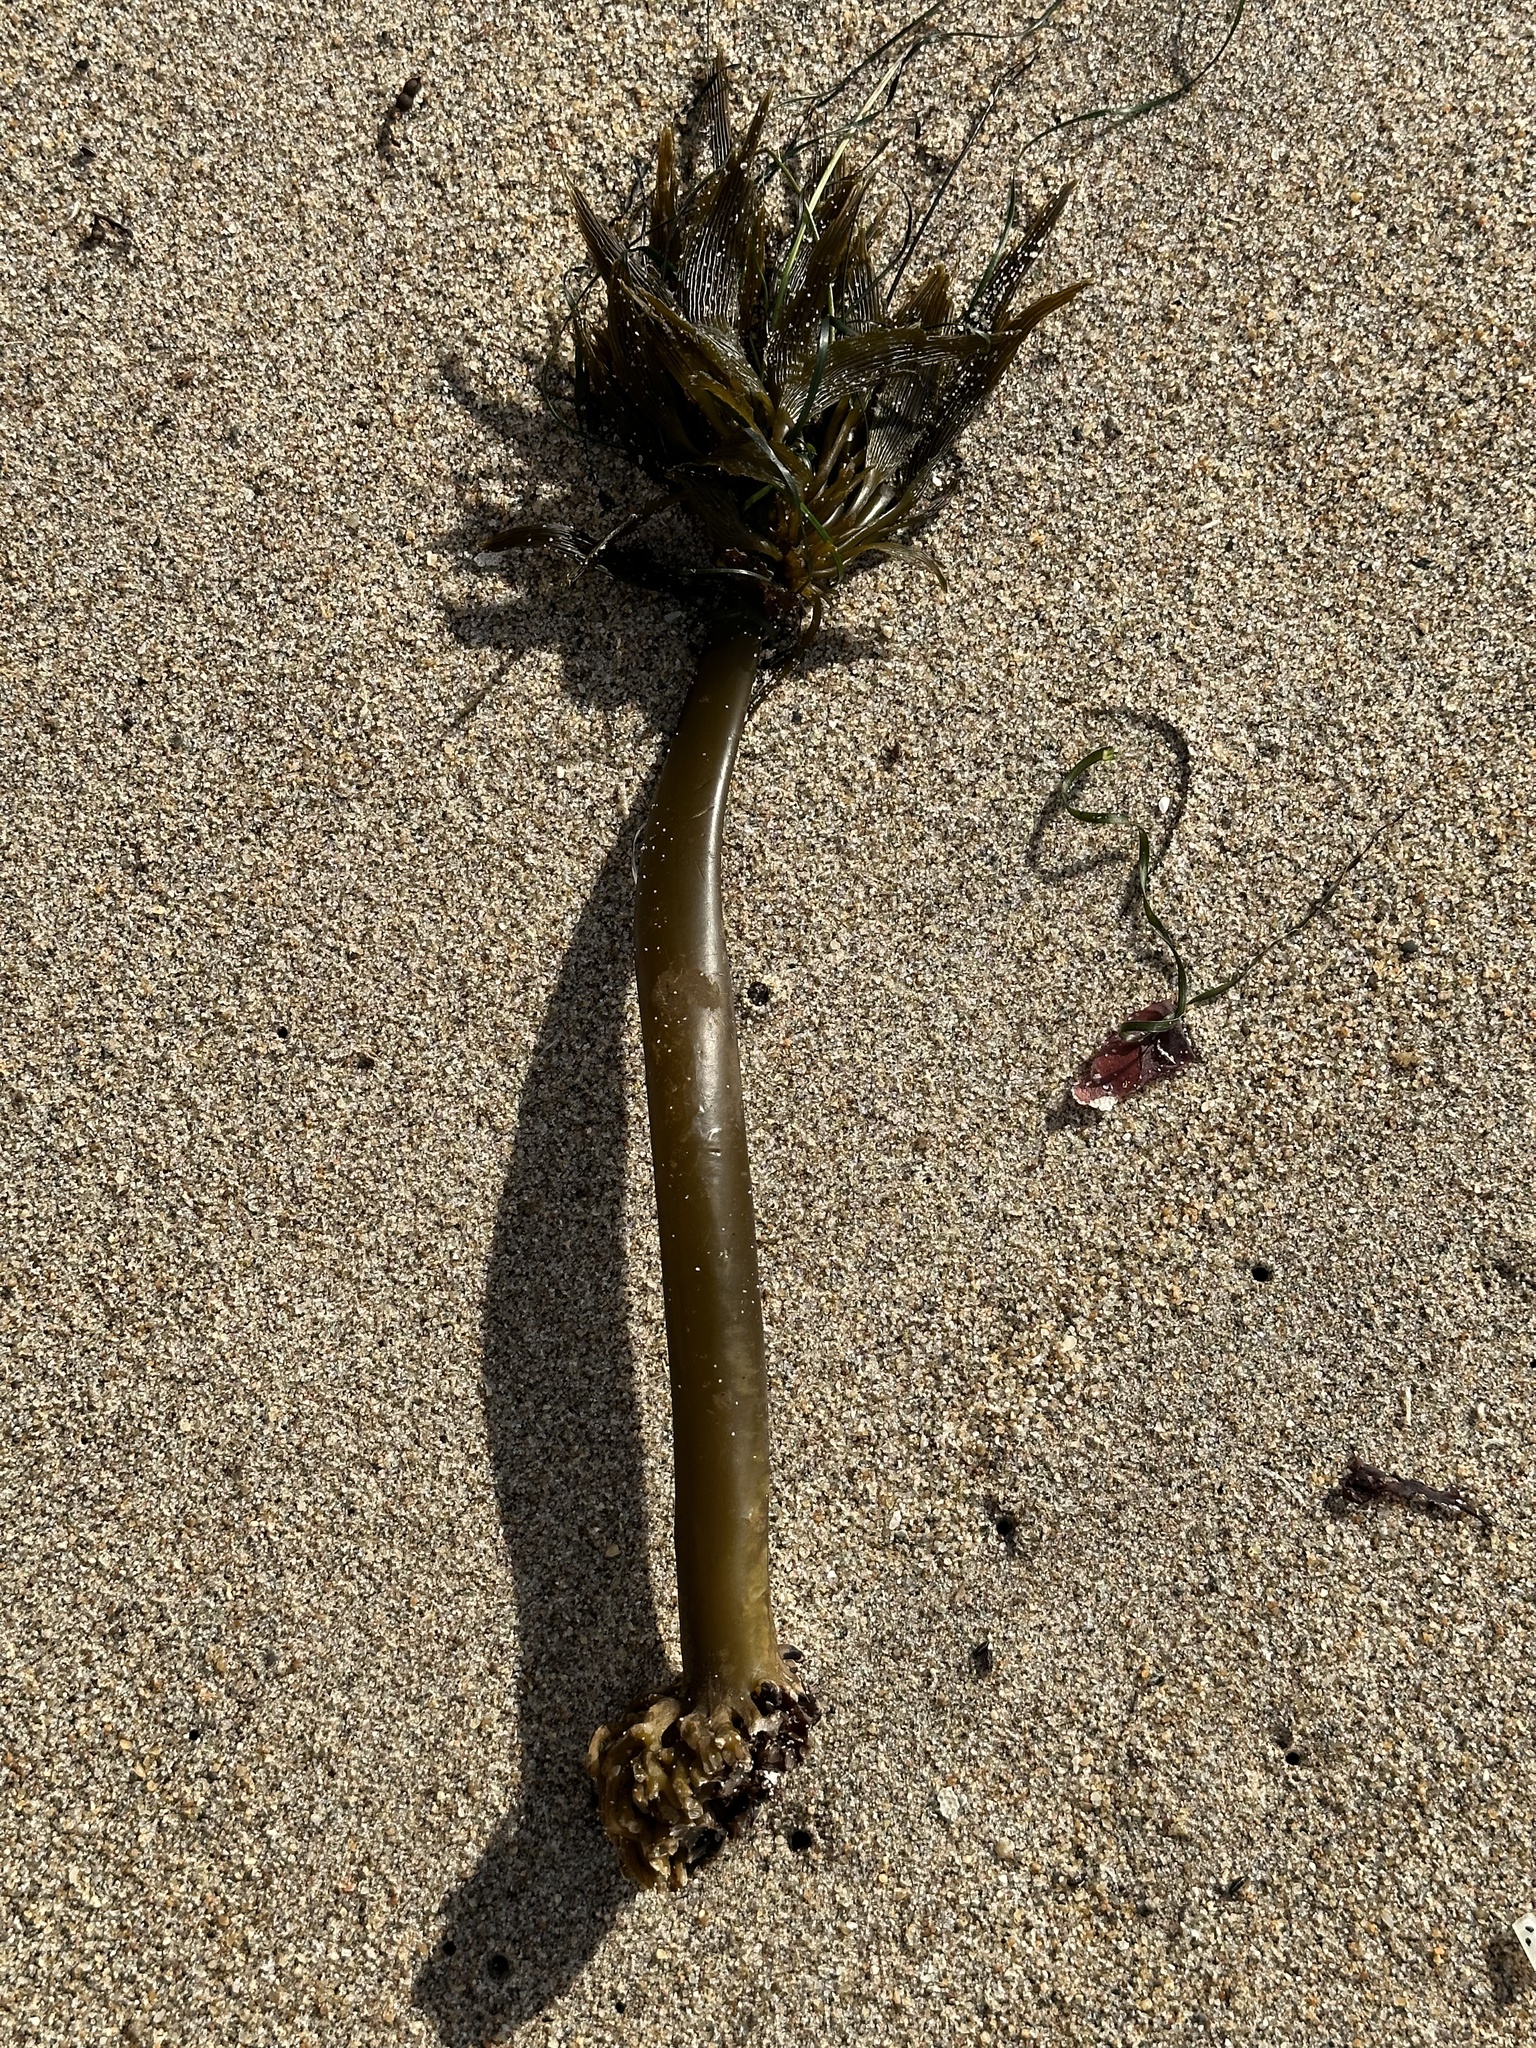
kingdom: Chromista
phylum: Ochrophyta
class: Phaeophyceae
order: Laminariales
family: Laminariaceae
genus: Postelsia
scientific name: Postelsia palmiformis
